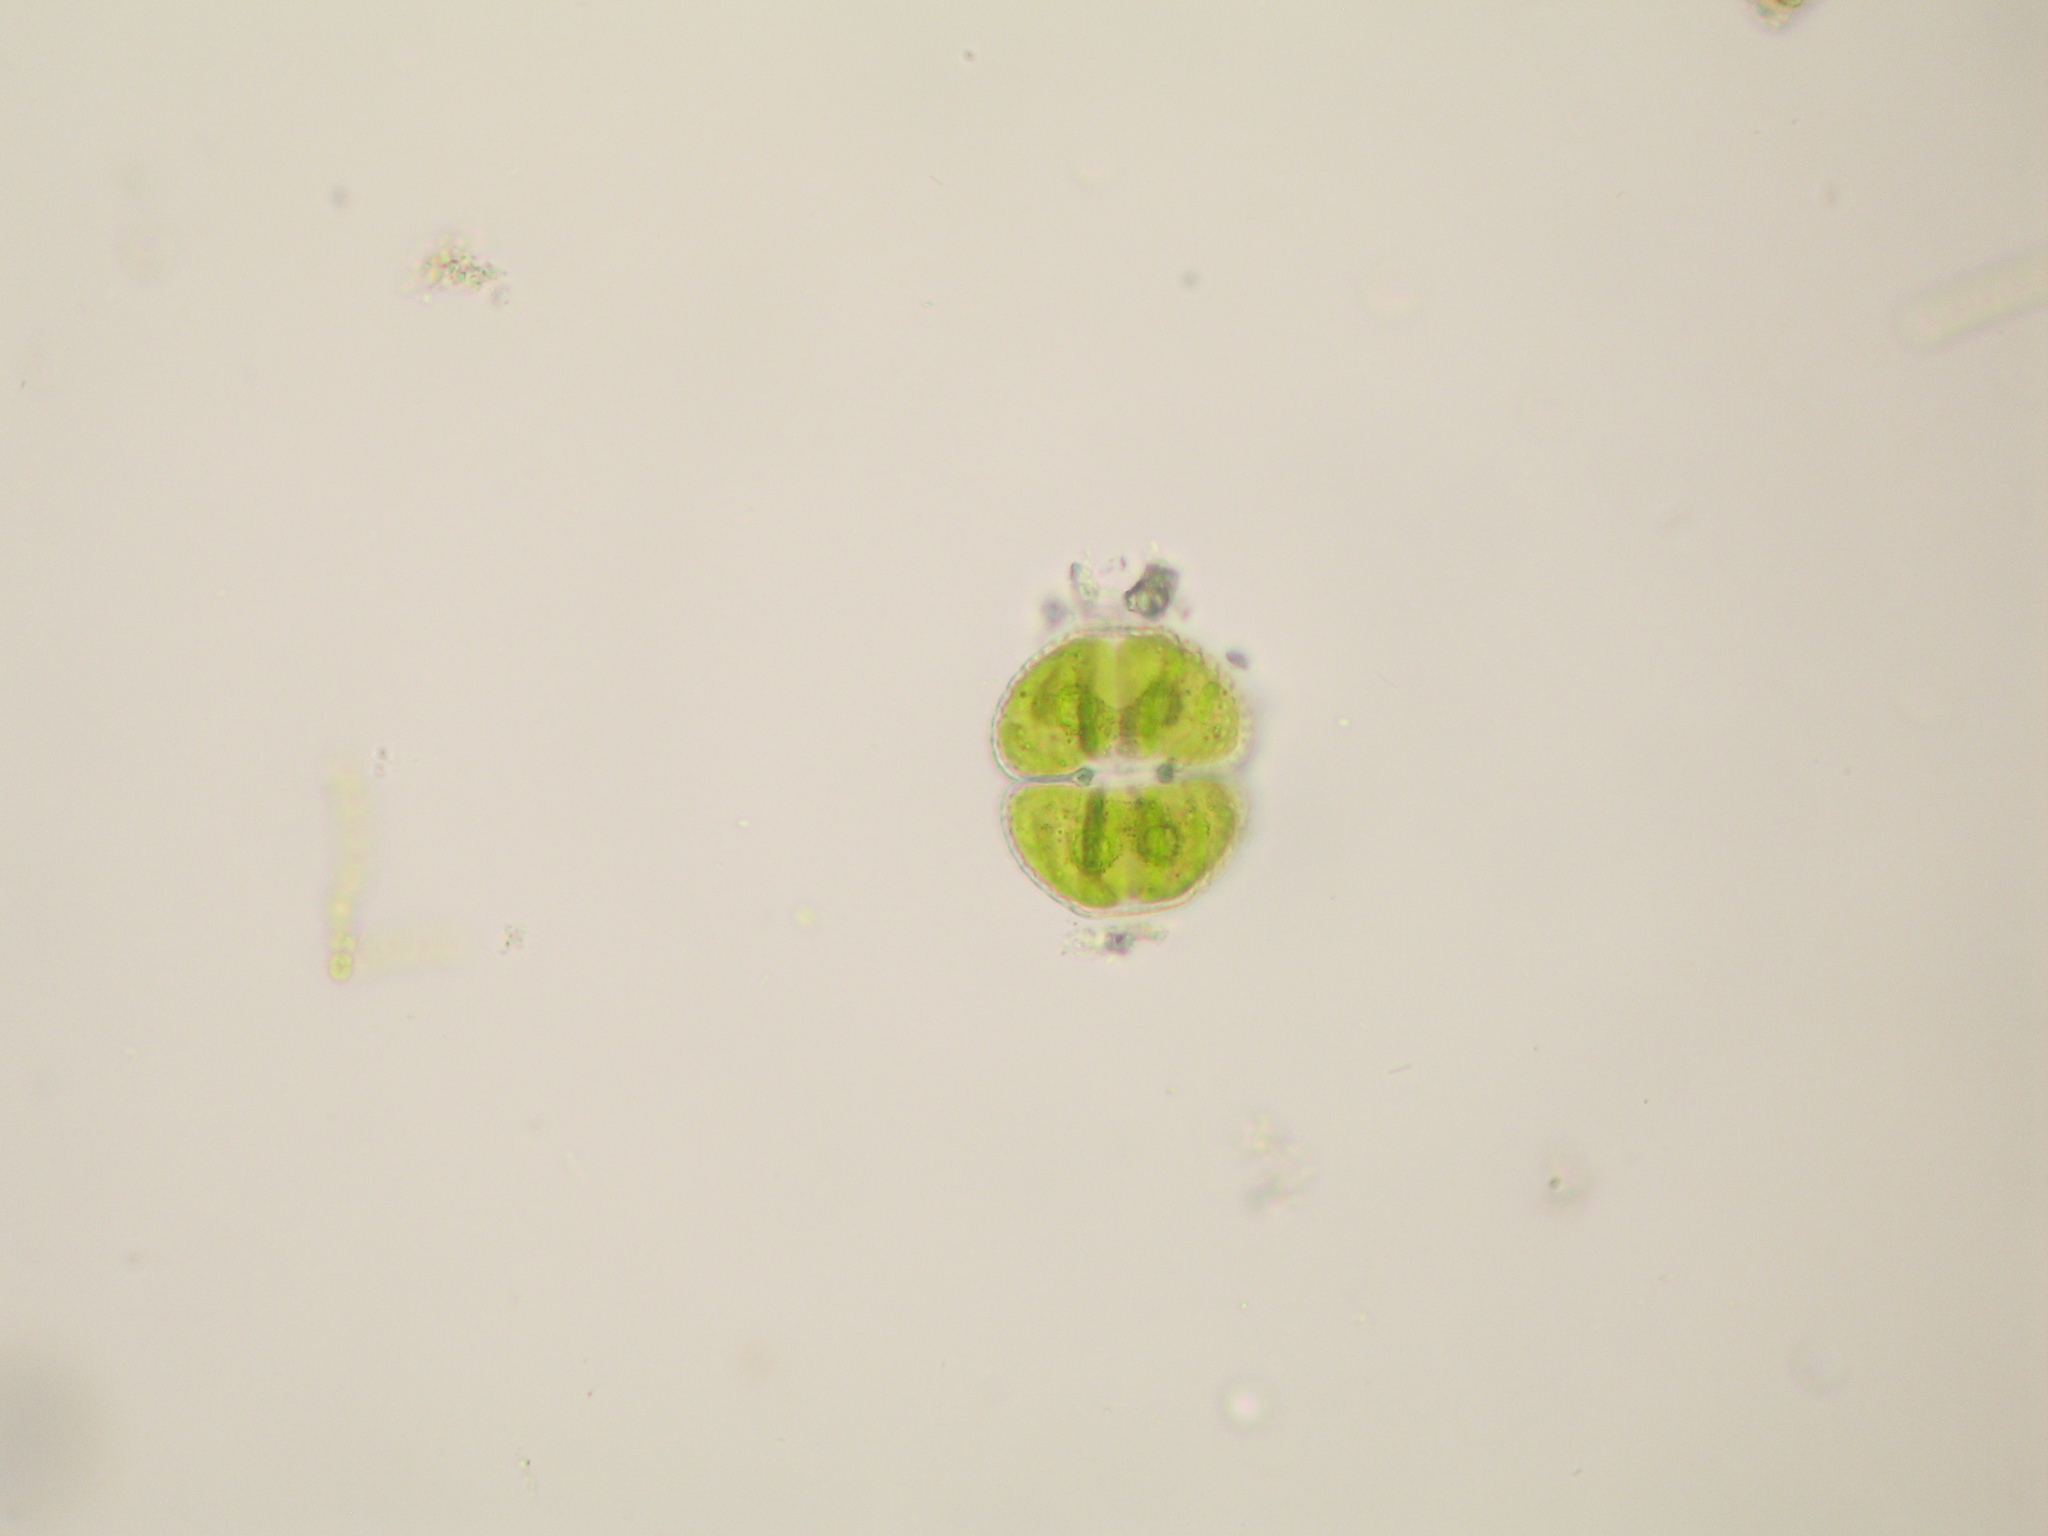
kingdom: Plantae
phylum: Charophyta
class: Conjugatophyceae
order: Desmidiales
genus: Cosmarium
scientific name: Cosmarium vexatum
